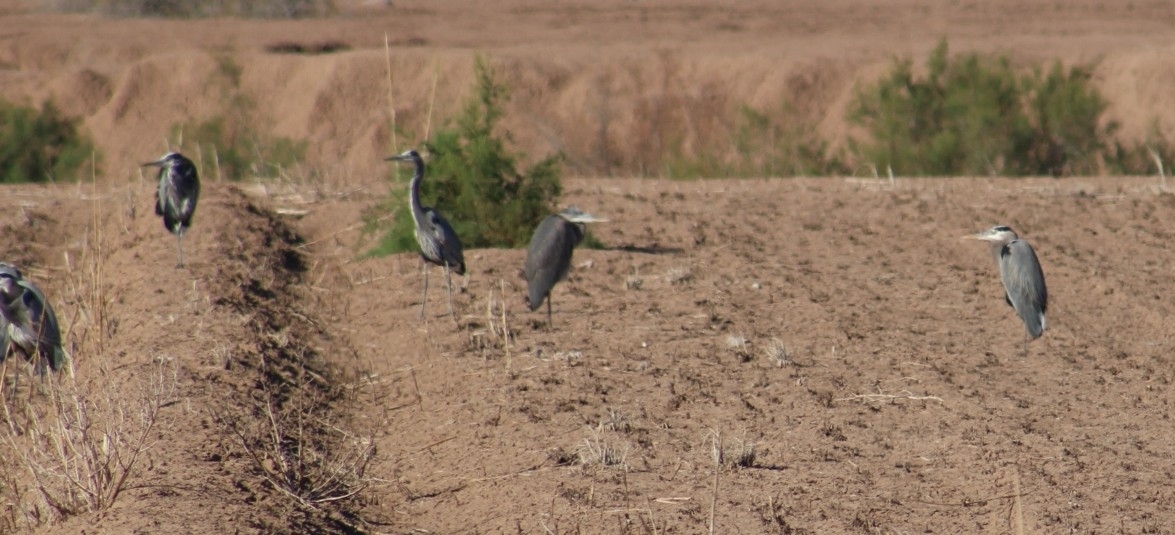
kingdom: Animalia
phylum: Chordata
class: Aves
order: Pelecaniformes
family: Ardeidae
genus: Ardea
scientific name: Ardea herodias
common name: Great blue heron
